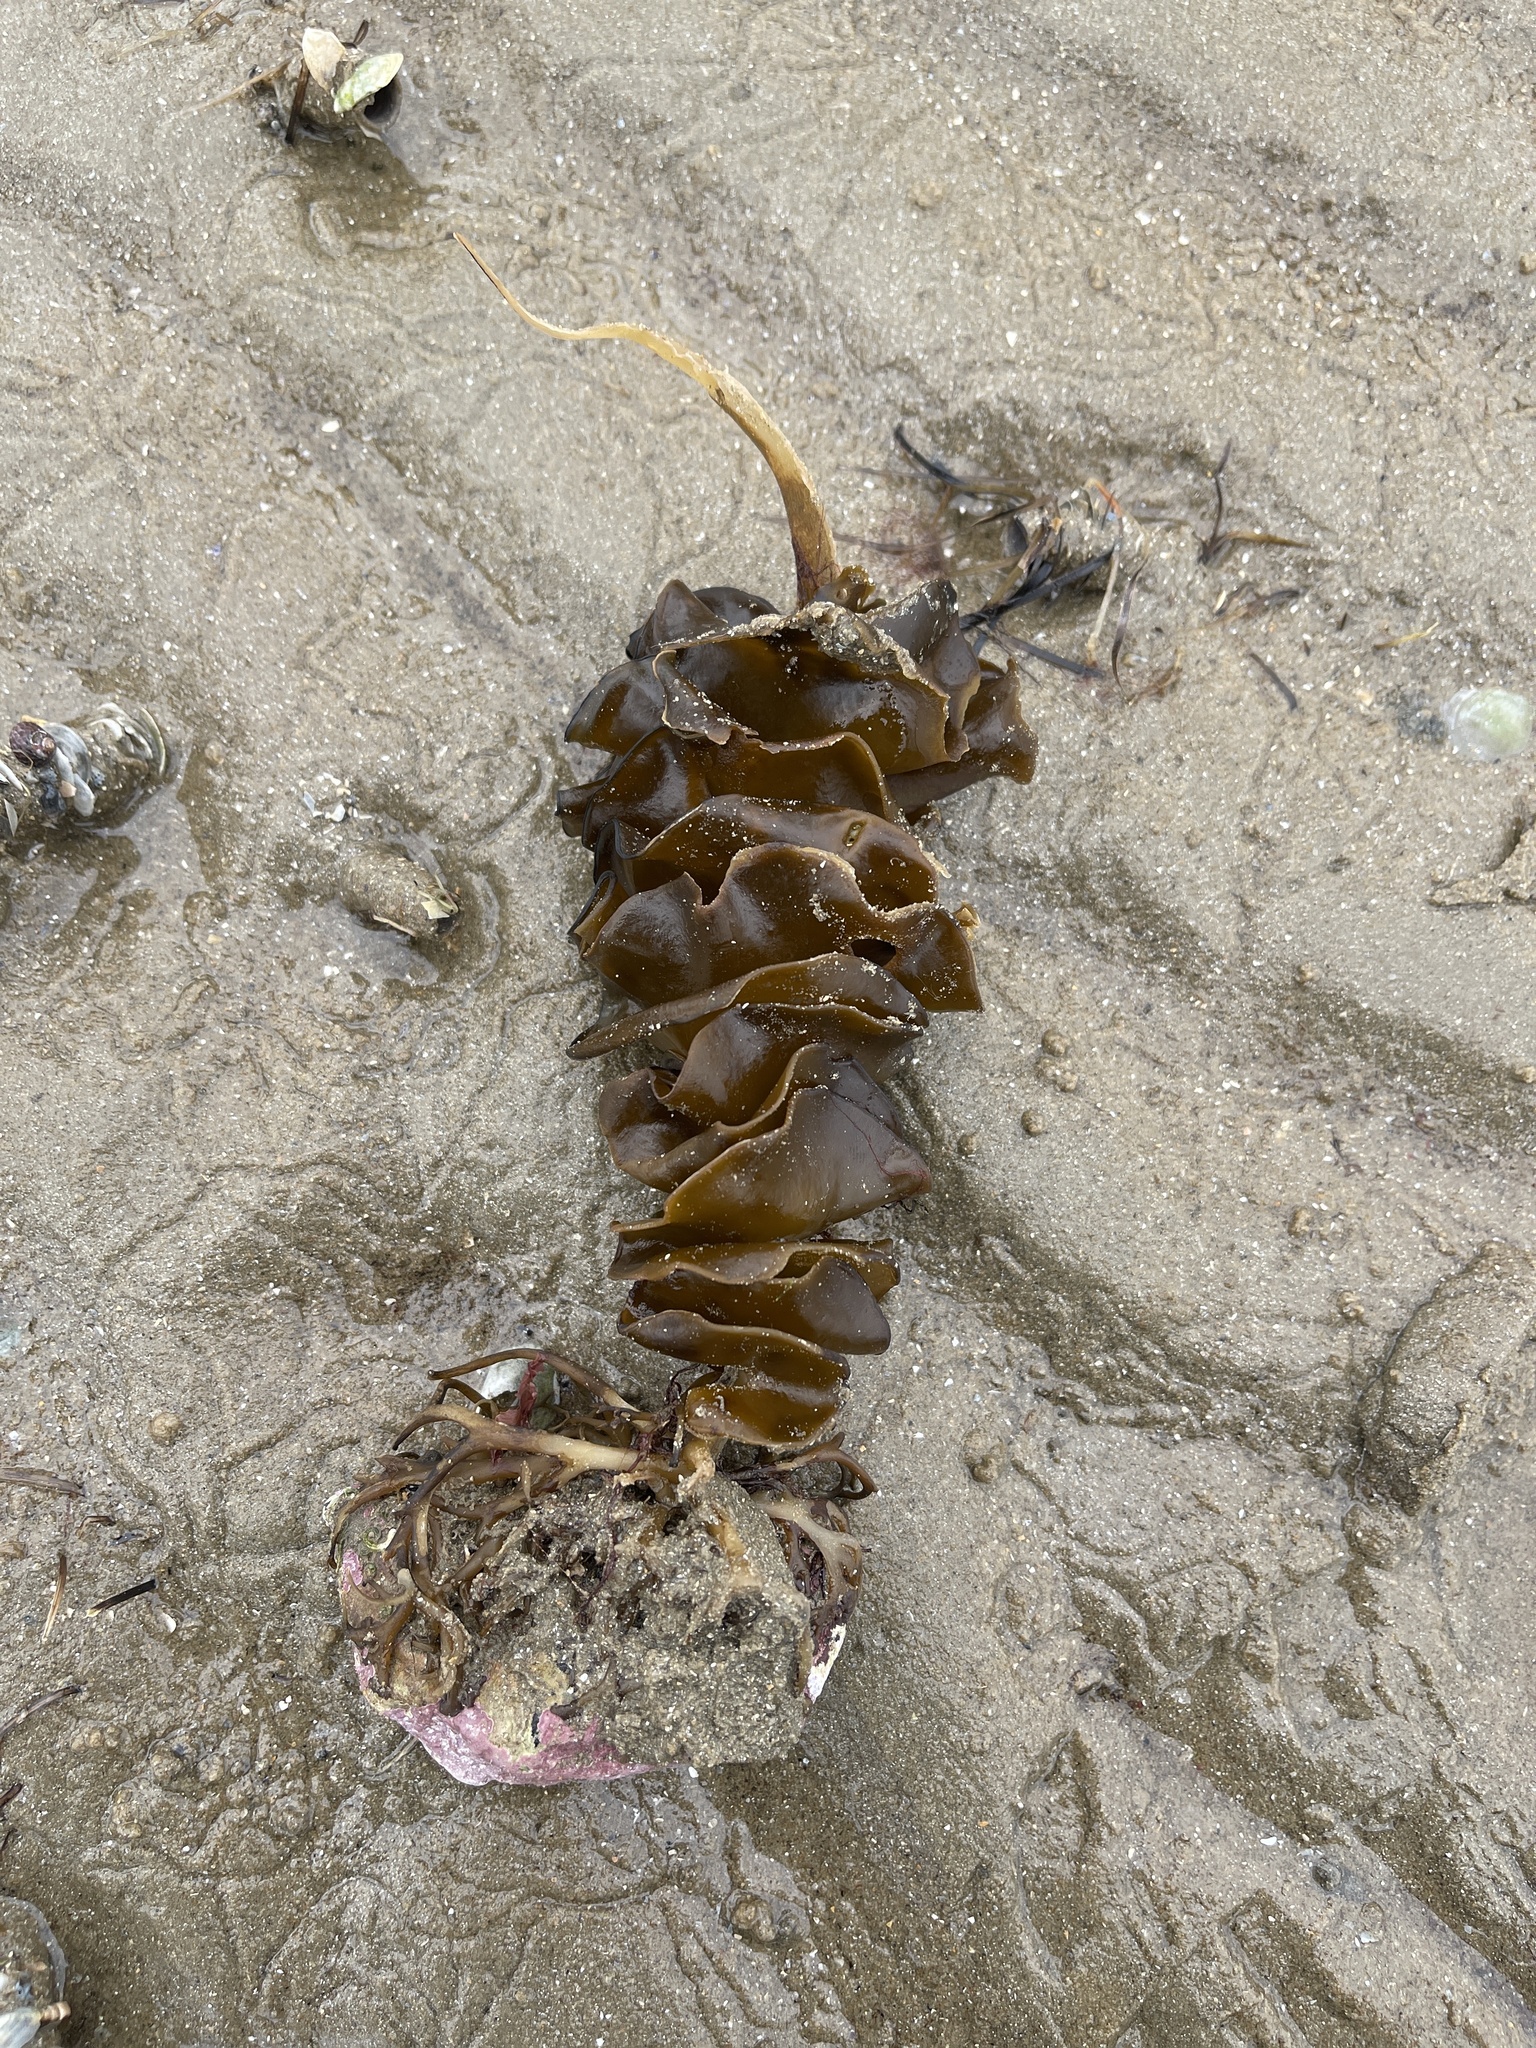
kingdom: Chromista
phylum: Ochrophyta
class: Phaeophyceae
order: Laminariales
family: Alariaceae
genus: Undaria
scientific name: Undaria pinnatifida
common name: Asian kelp
